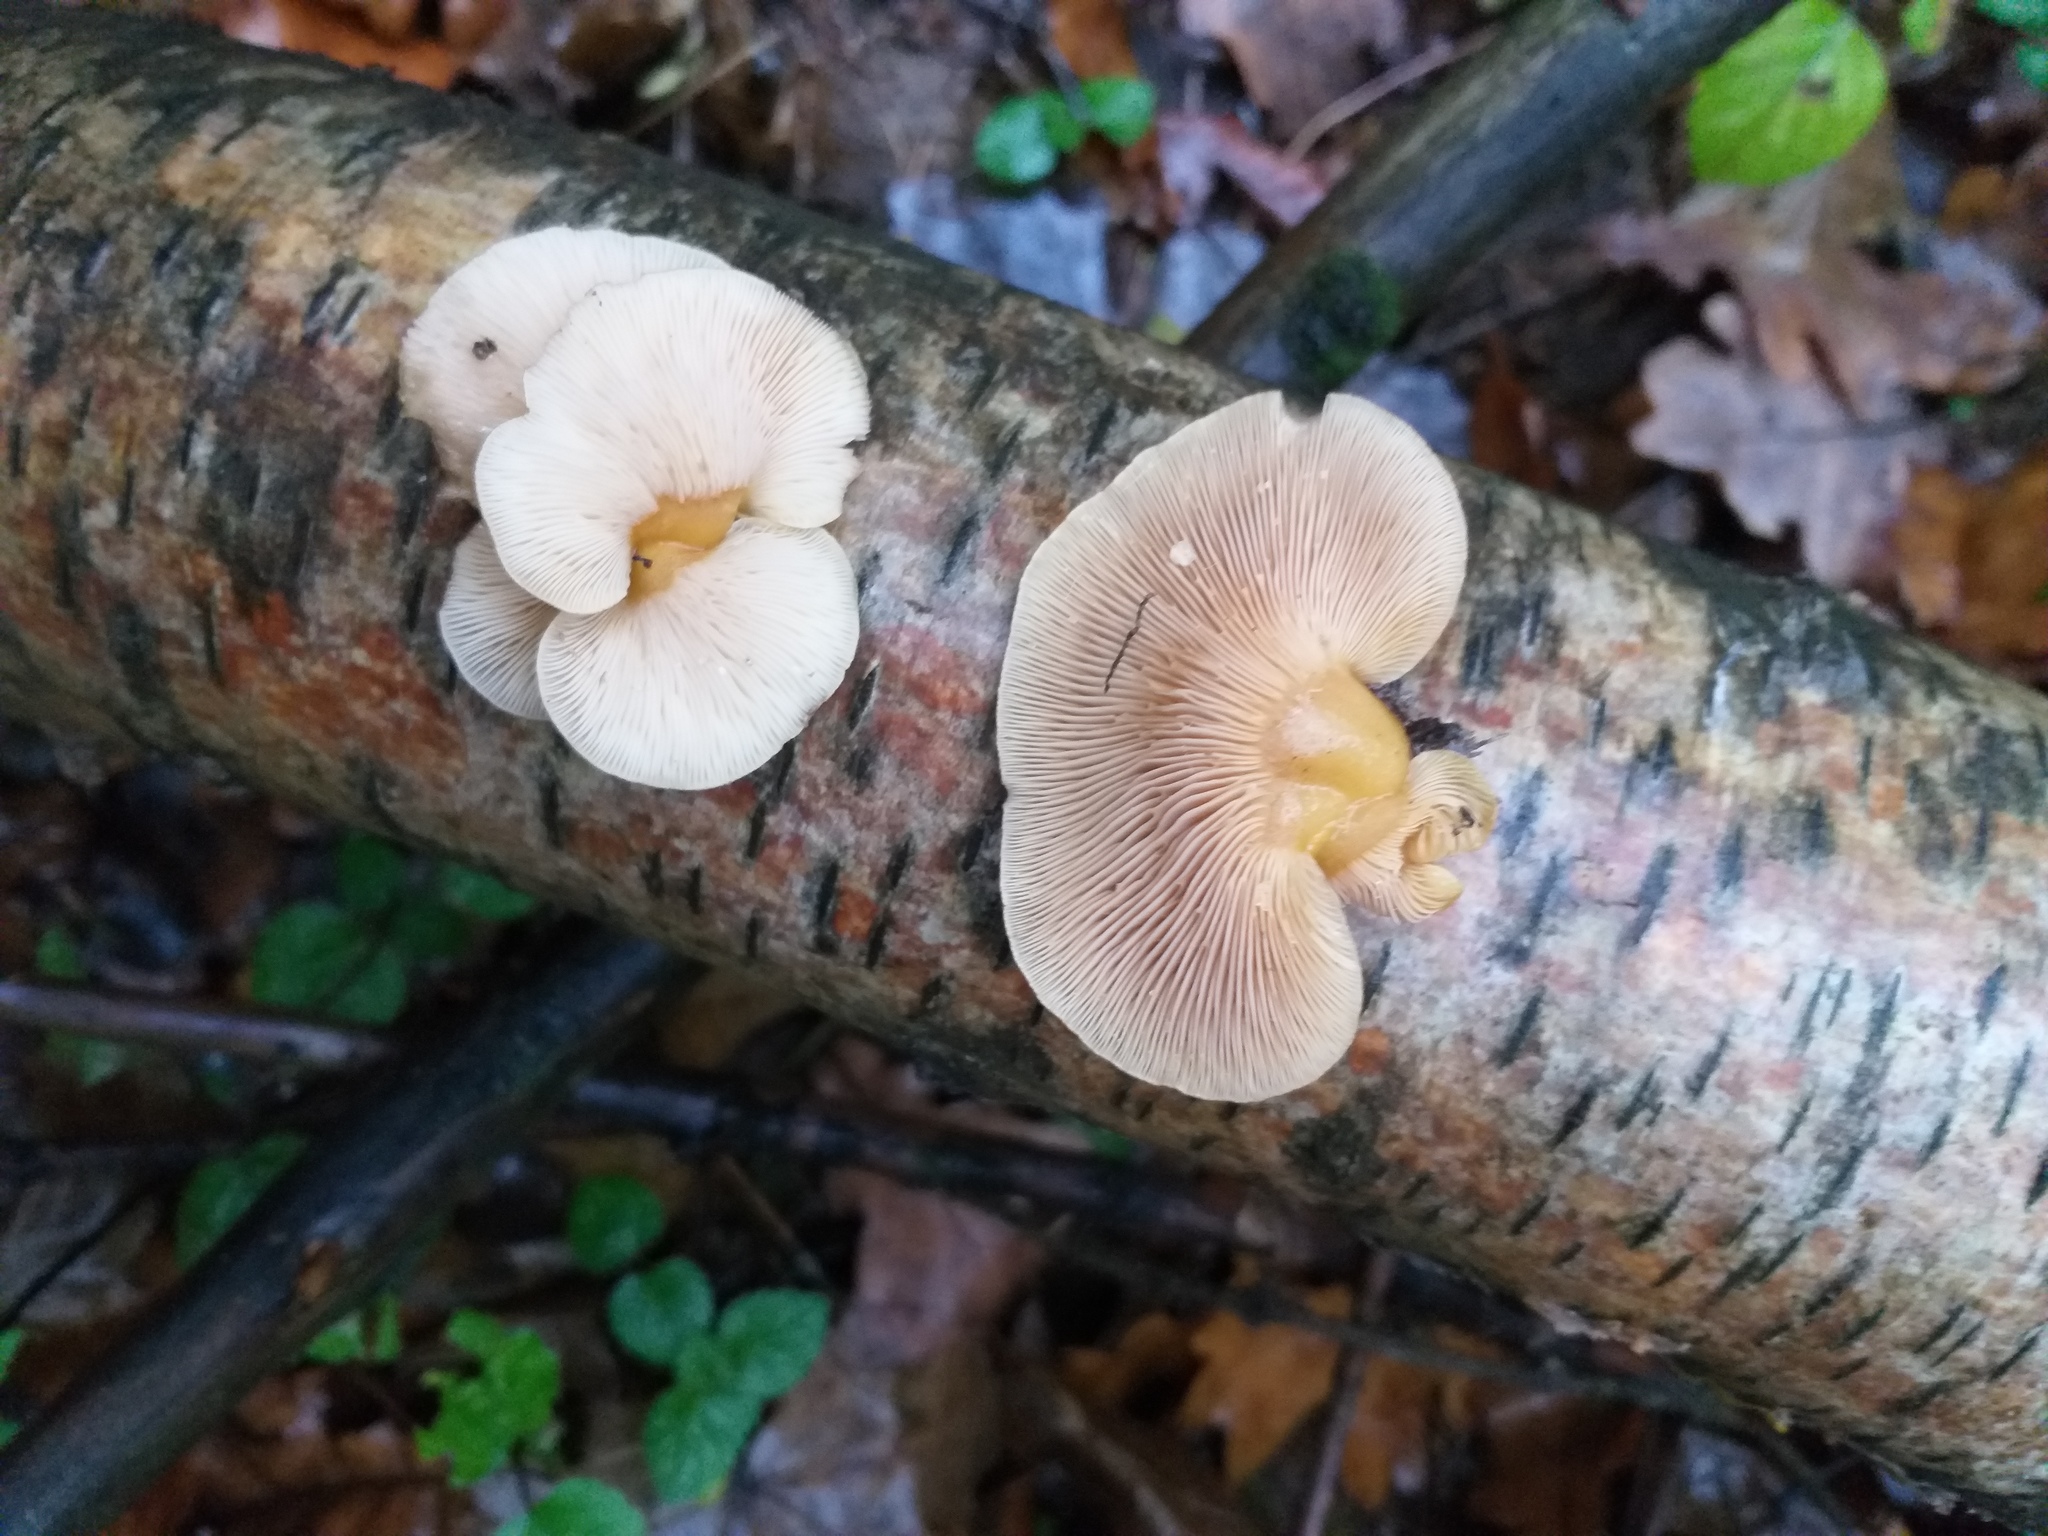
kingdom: Fungi
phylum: Basidiomycota
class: Agaricomycetes
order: Agaricales
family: Sarcomyxaceae
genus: Sarcomyxa
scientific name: Sarcomyxa serotina
